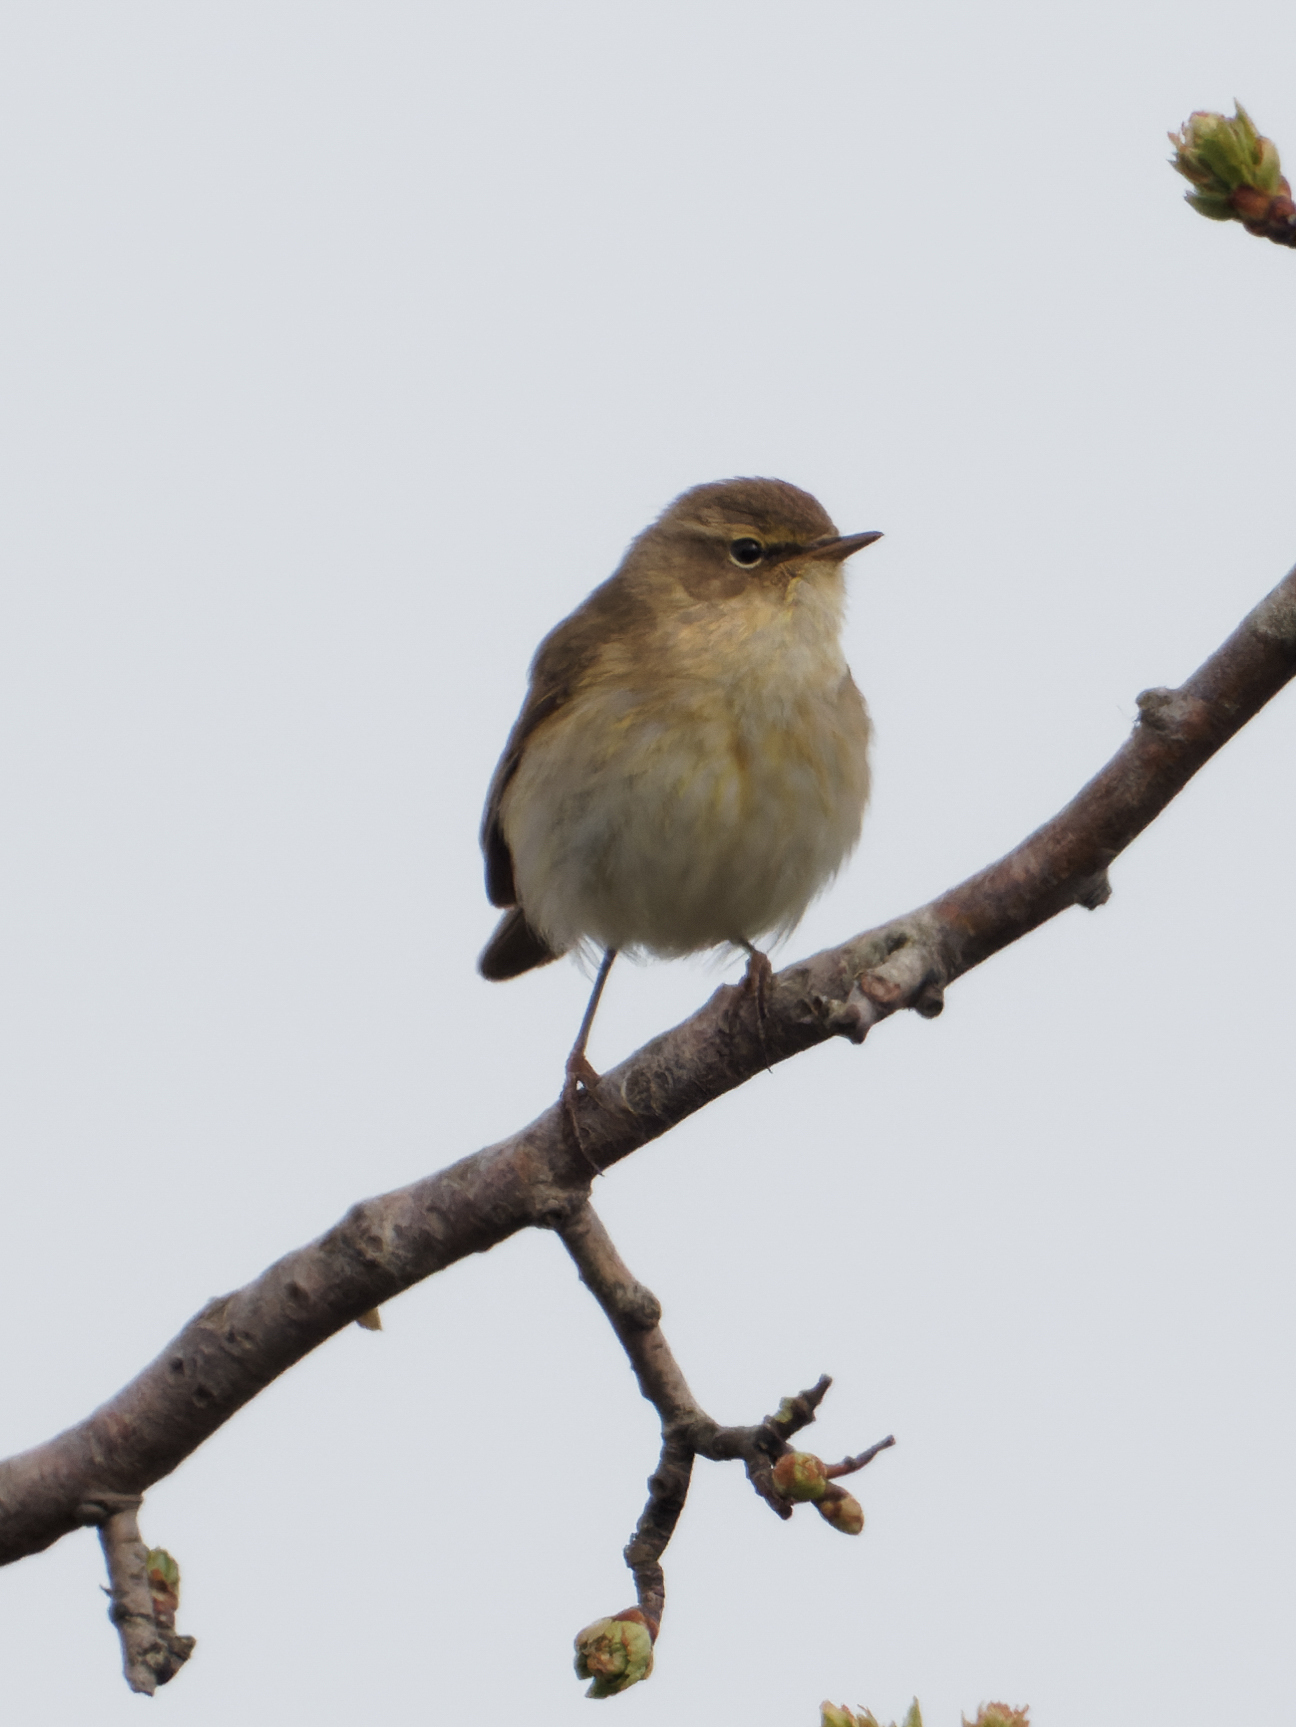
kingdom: Animalia
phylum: Chordata
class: Aves
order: Passeriformes
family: Phylloscopidae
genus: Phylloscopus
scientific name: Phylloscopus collybita
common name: Common chiffchaff
